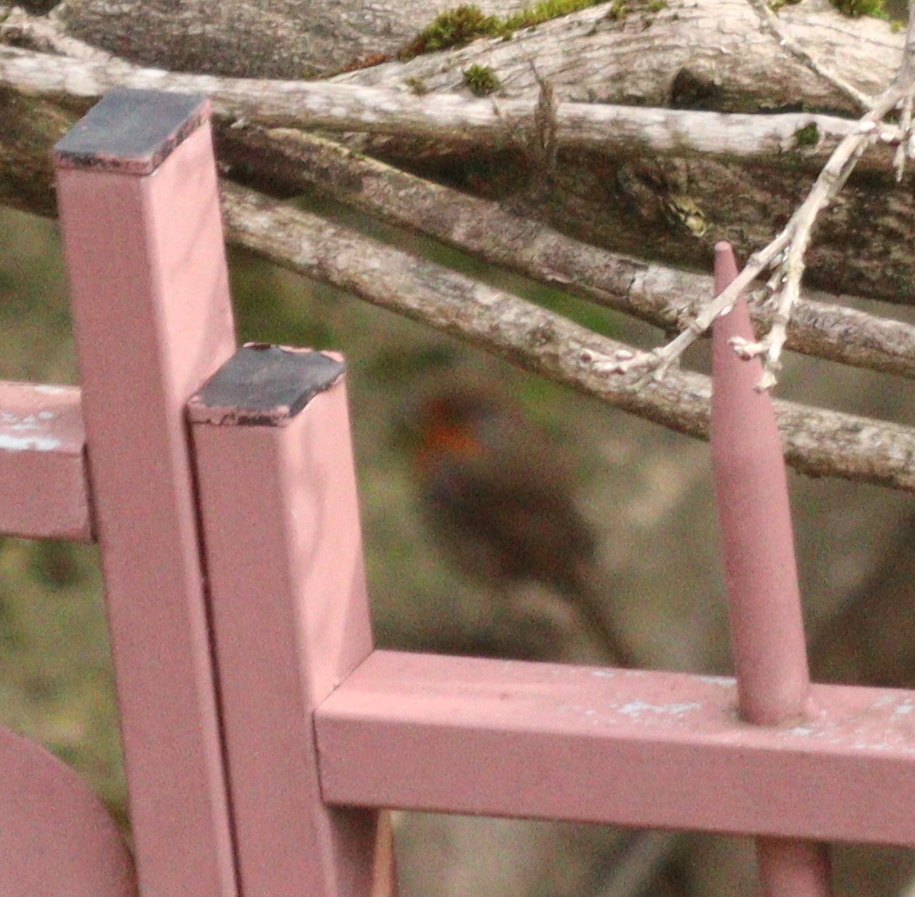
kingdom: Animalia
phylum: Chordata
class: Aves
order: Passeriformes
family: Muscicapidae
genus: Erithacus
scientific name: Erithacus rubecula
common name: European robin
